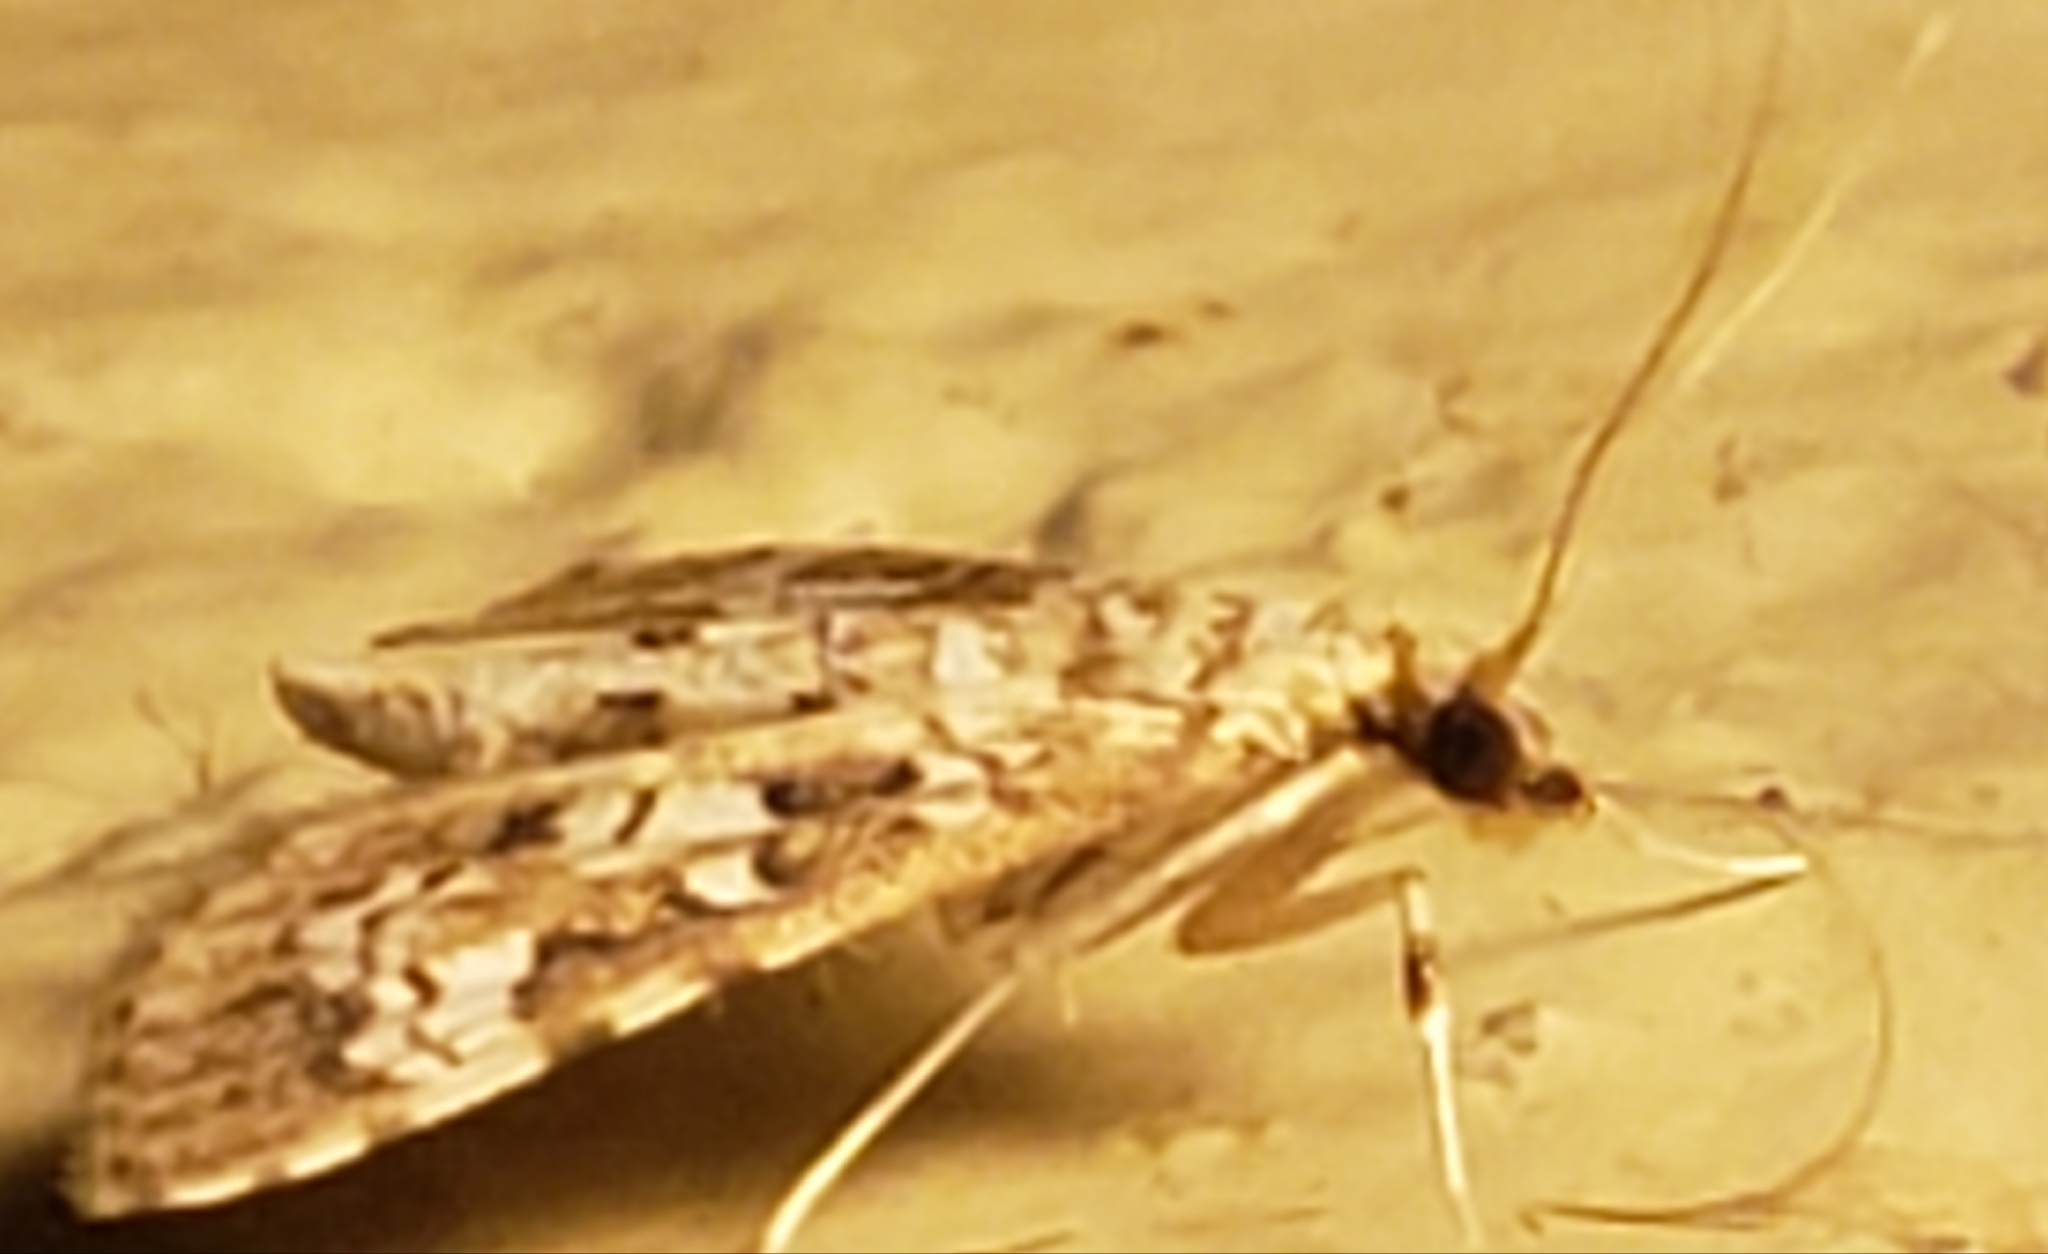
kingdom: Animalia
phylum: Arthropoda
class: Insecta
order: Lepidoptera
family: Crambidae
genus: Samea
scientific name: Samea multiplicalis
